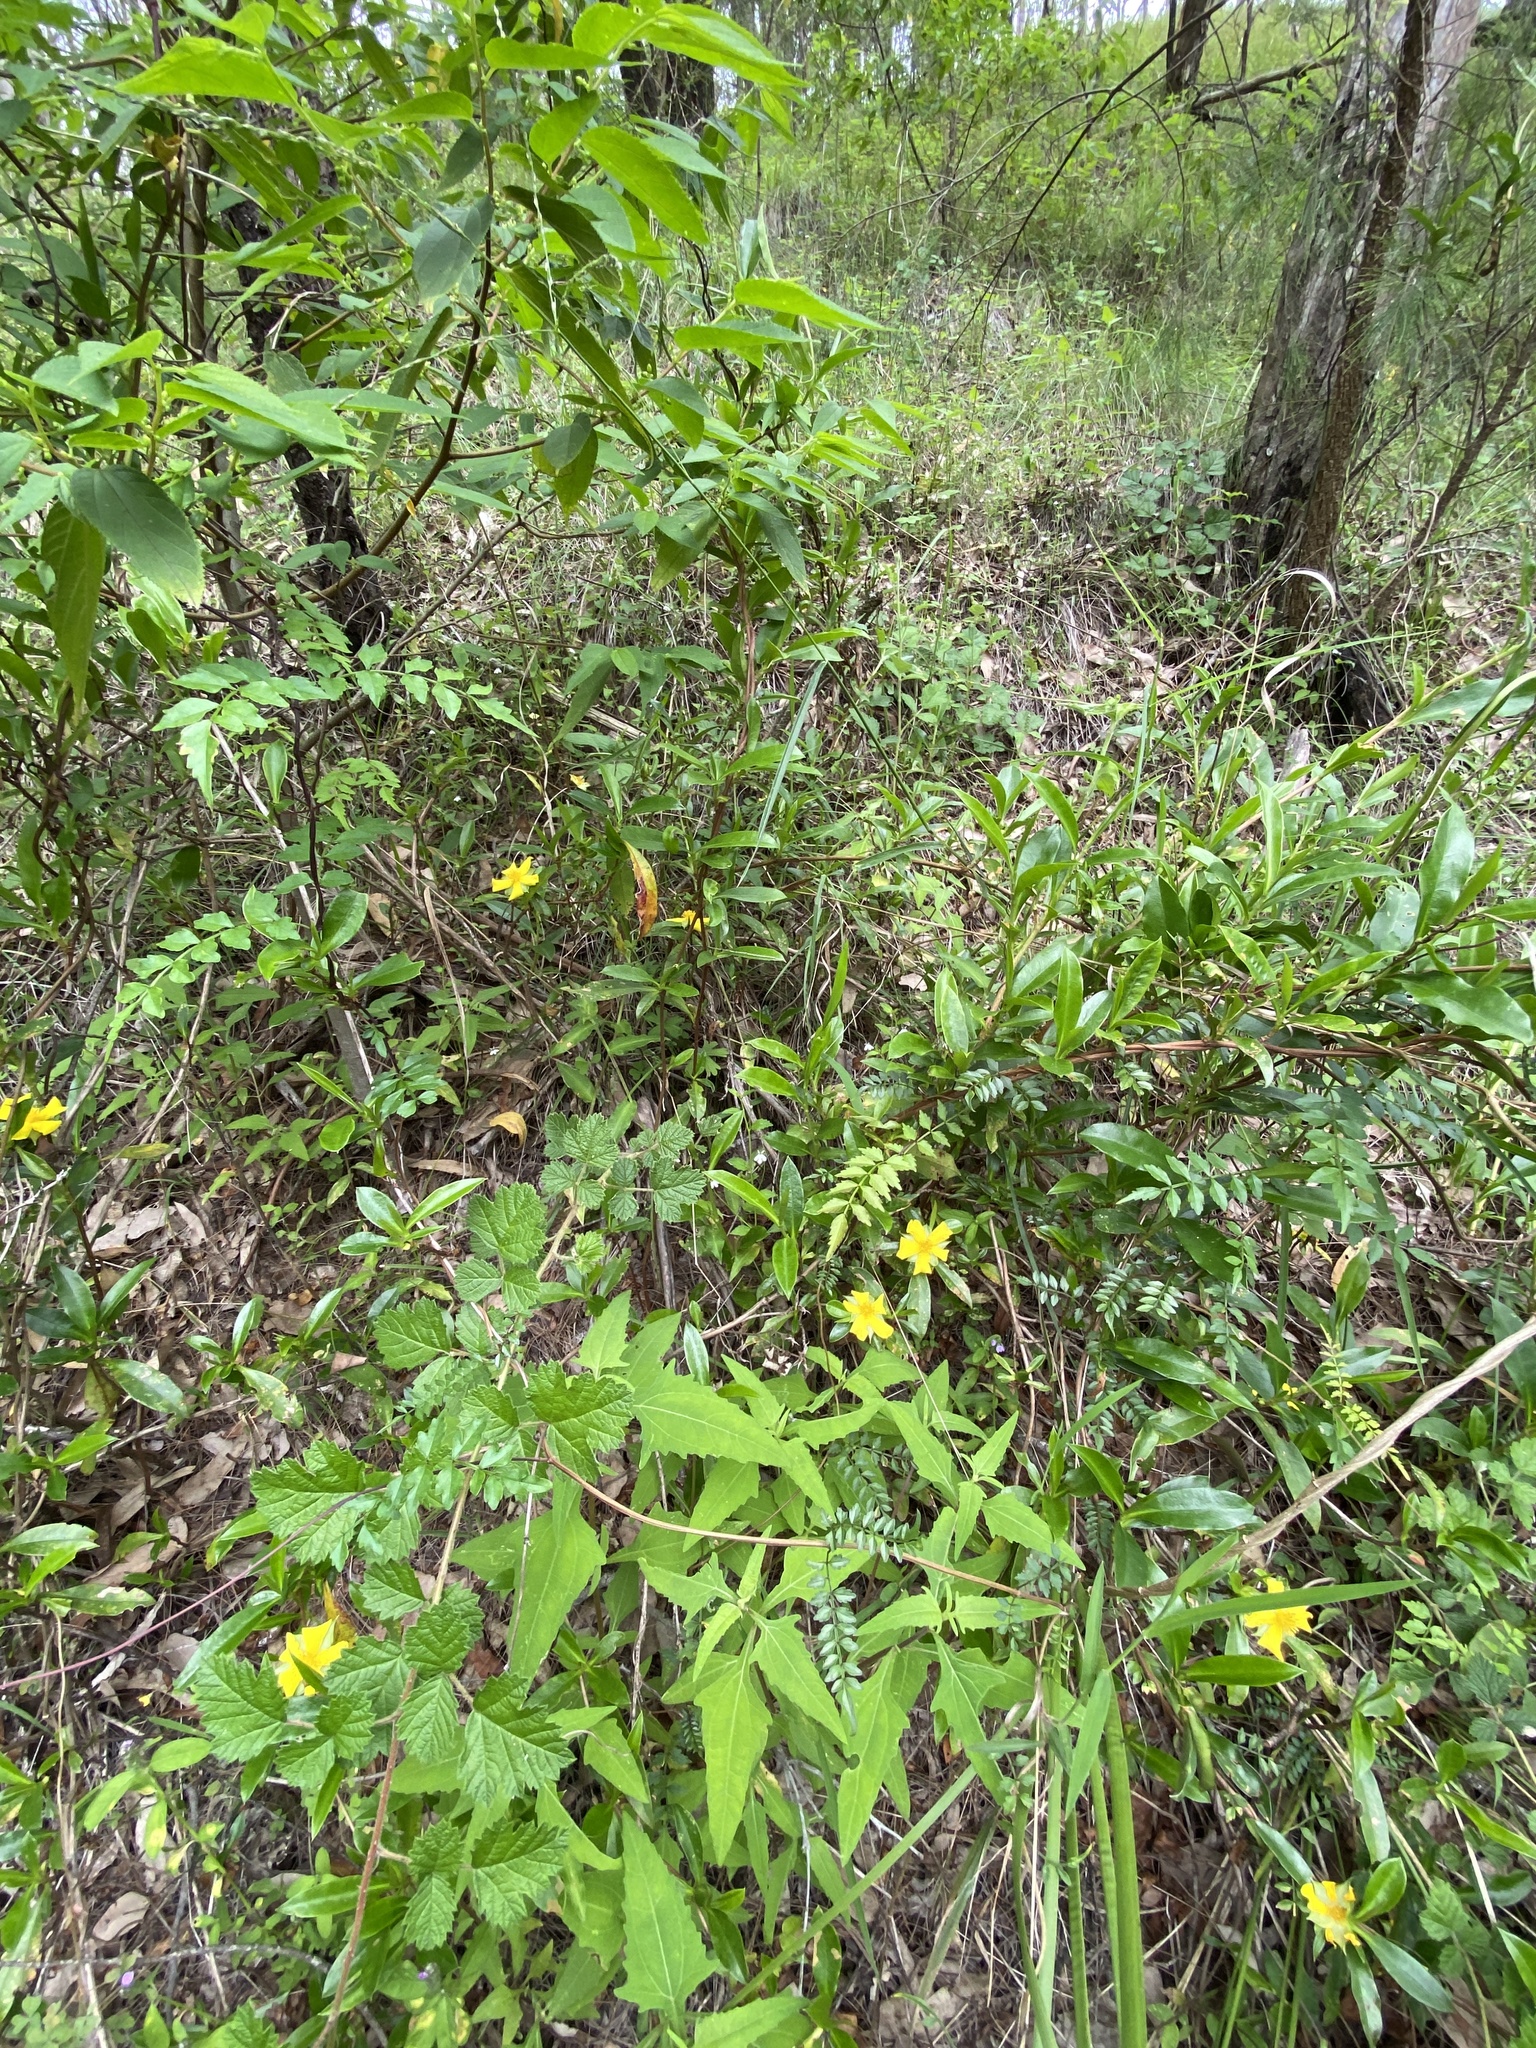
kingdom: Plantae
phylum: Tracheophyta
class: Magnoliopsida
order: Dilleniales
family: Dilleniaceae
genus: Hibbertia
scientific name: Hibbertia scandens
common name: Climbing guinea-flower
